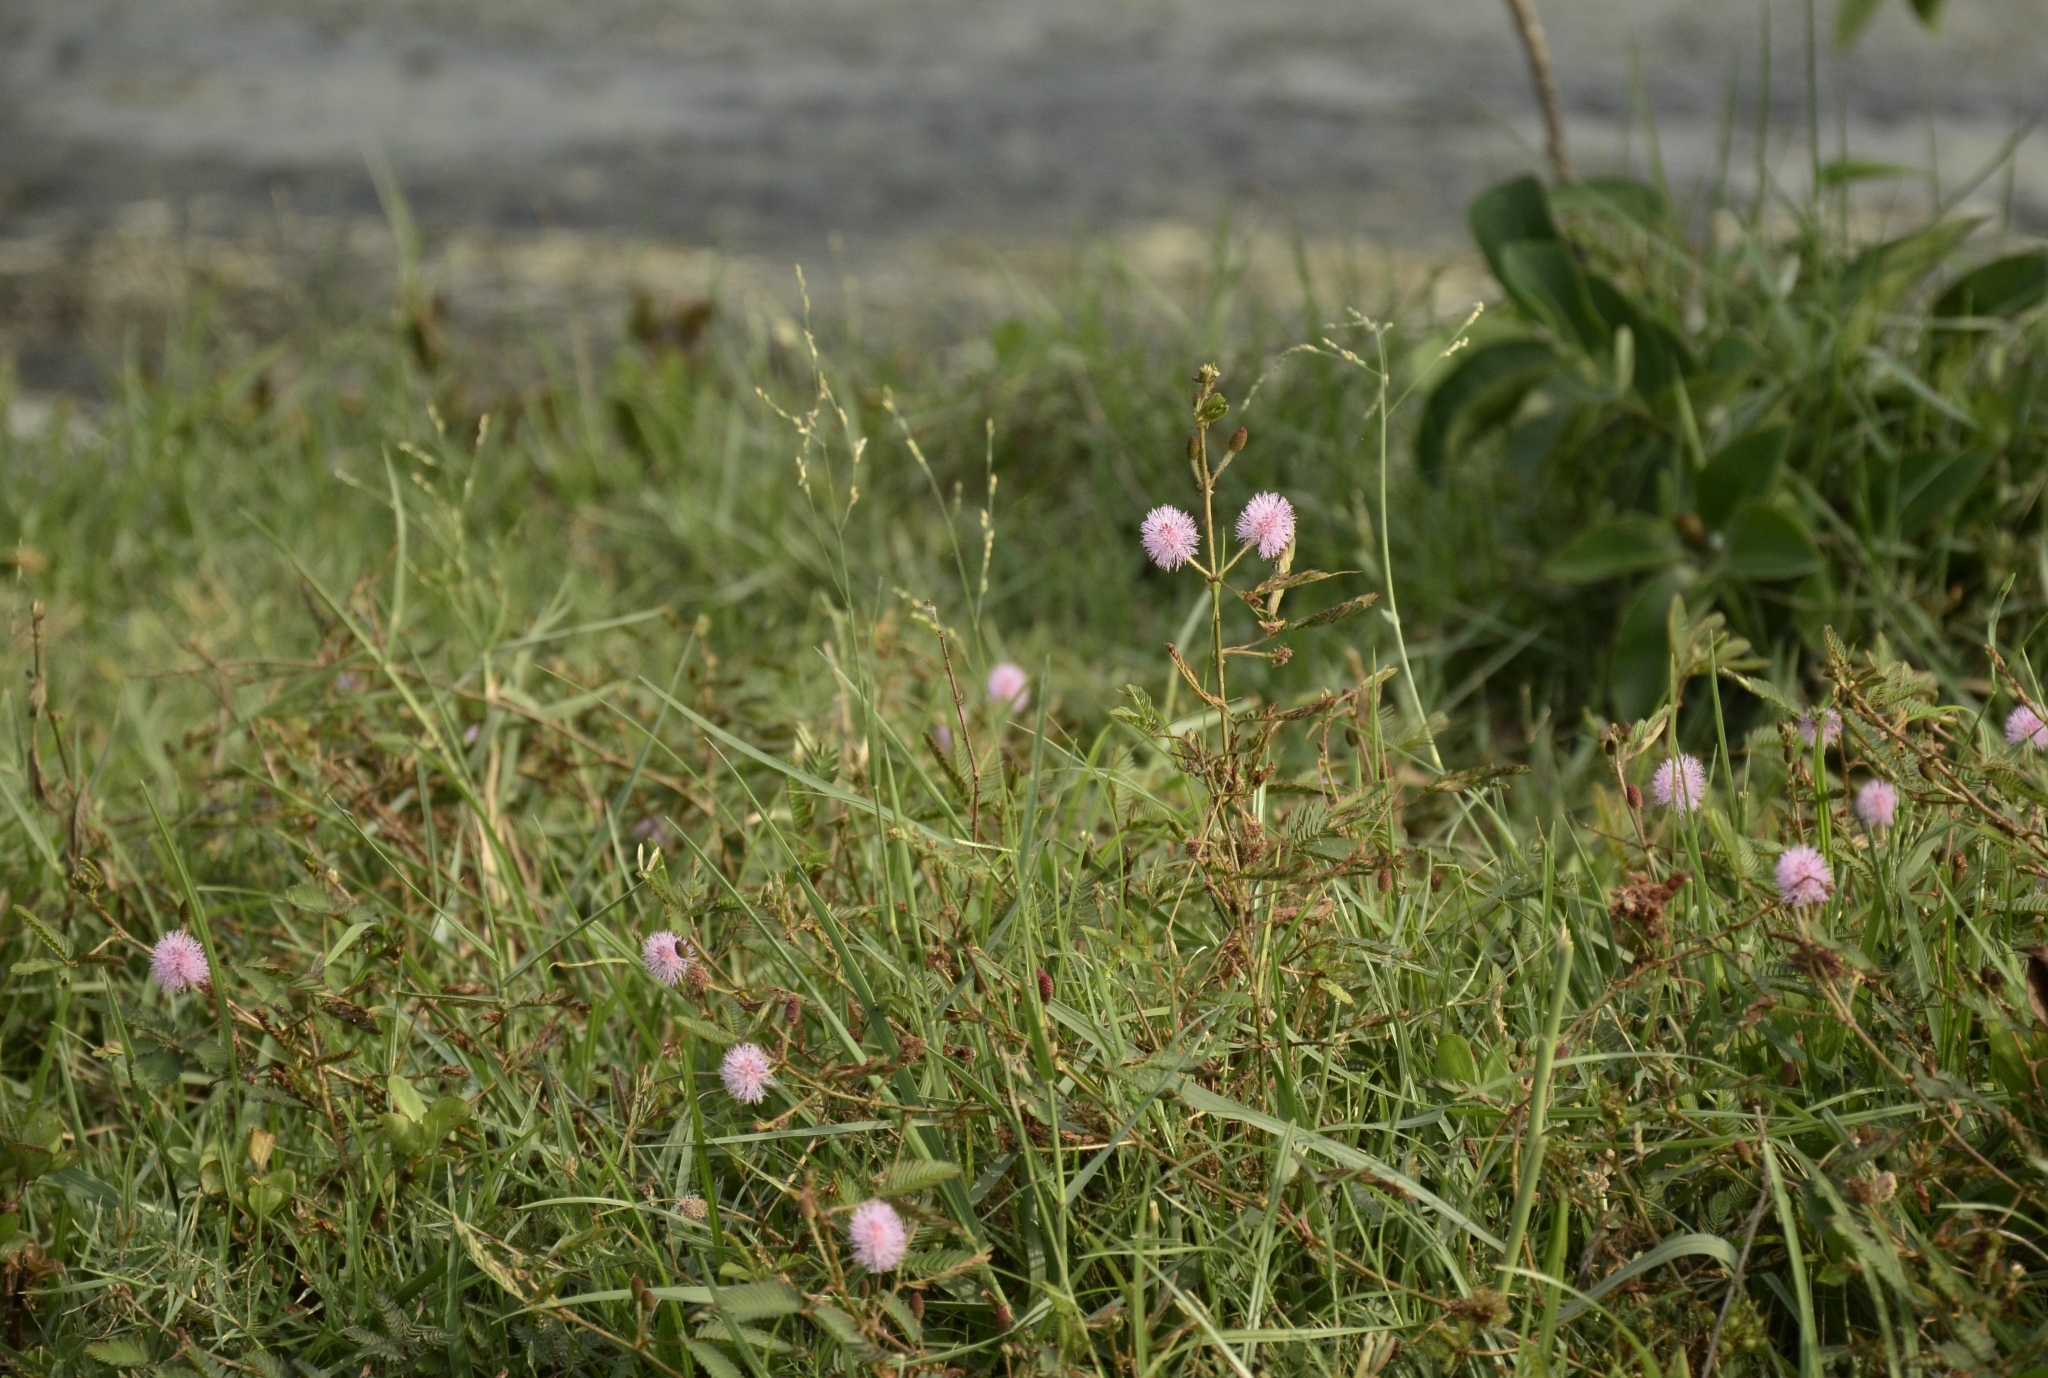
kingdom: Plantae
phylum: Tracheophyta
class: Magnoliopsida
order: Fabales
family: Fabaceae
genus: Mimosa
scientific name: Mimosa pudica
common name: Sensitive plant
